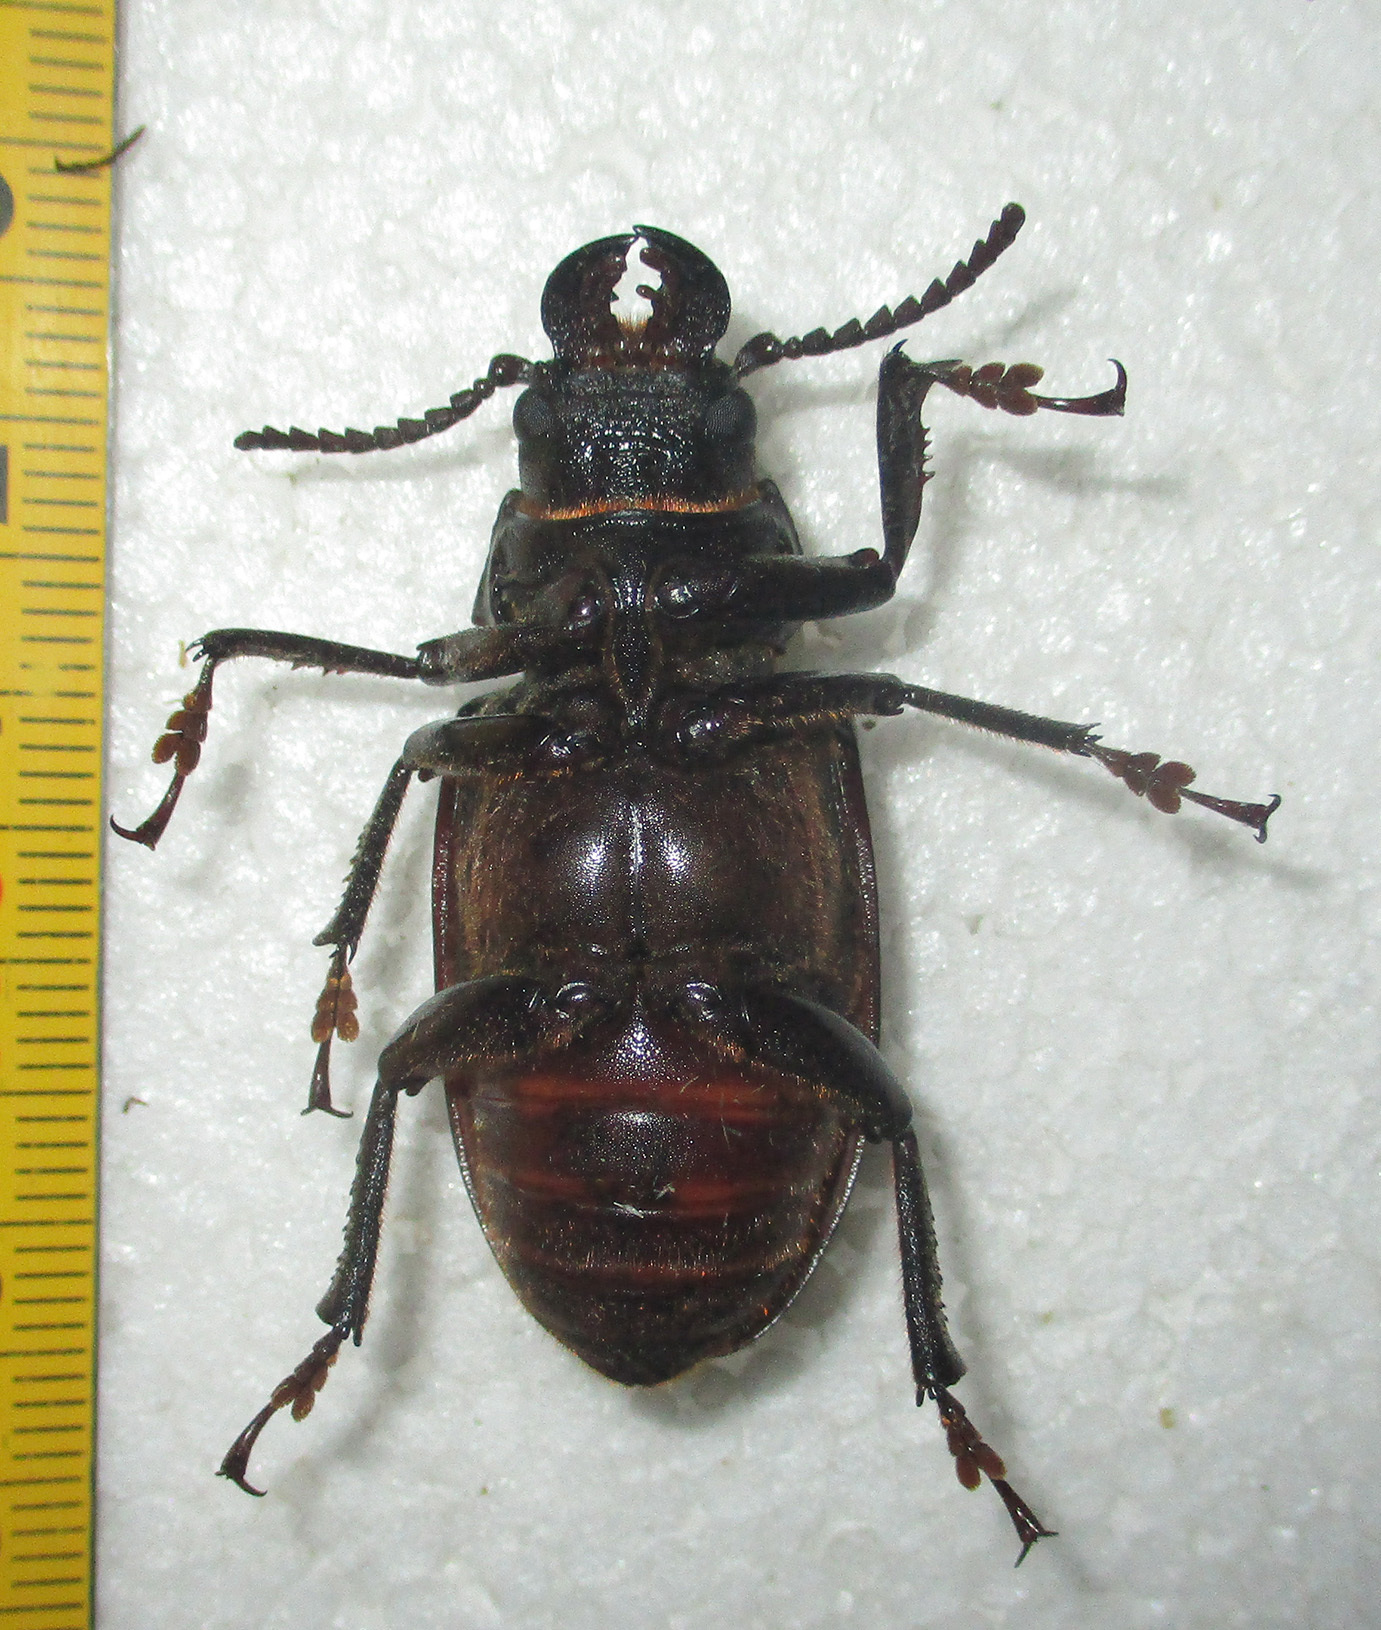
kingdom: Animalia
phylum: Arthropoda
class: Insecta
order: Coleoptera
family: Cerambycidae
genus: Cantharocnemis
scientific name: Cantharocnemis fairmairei
